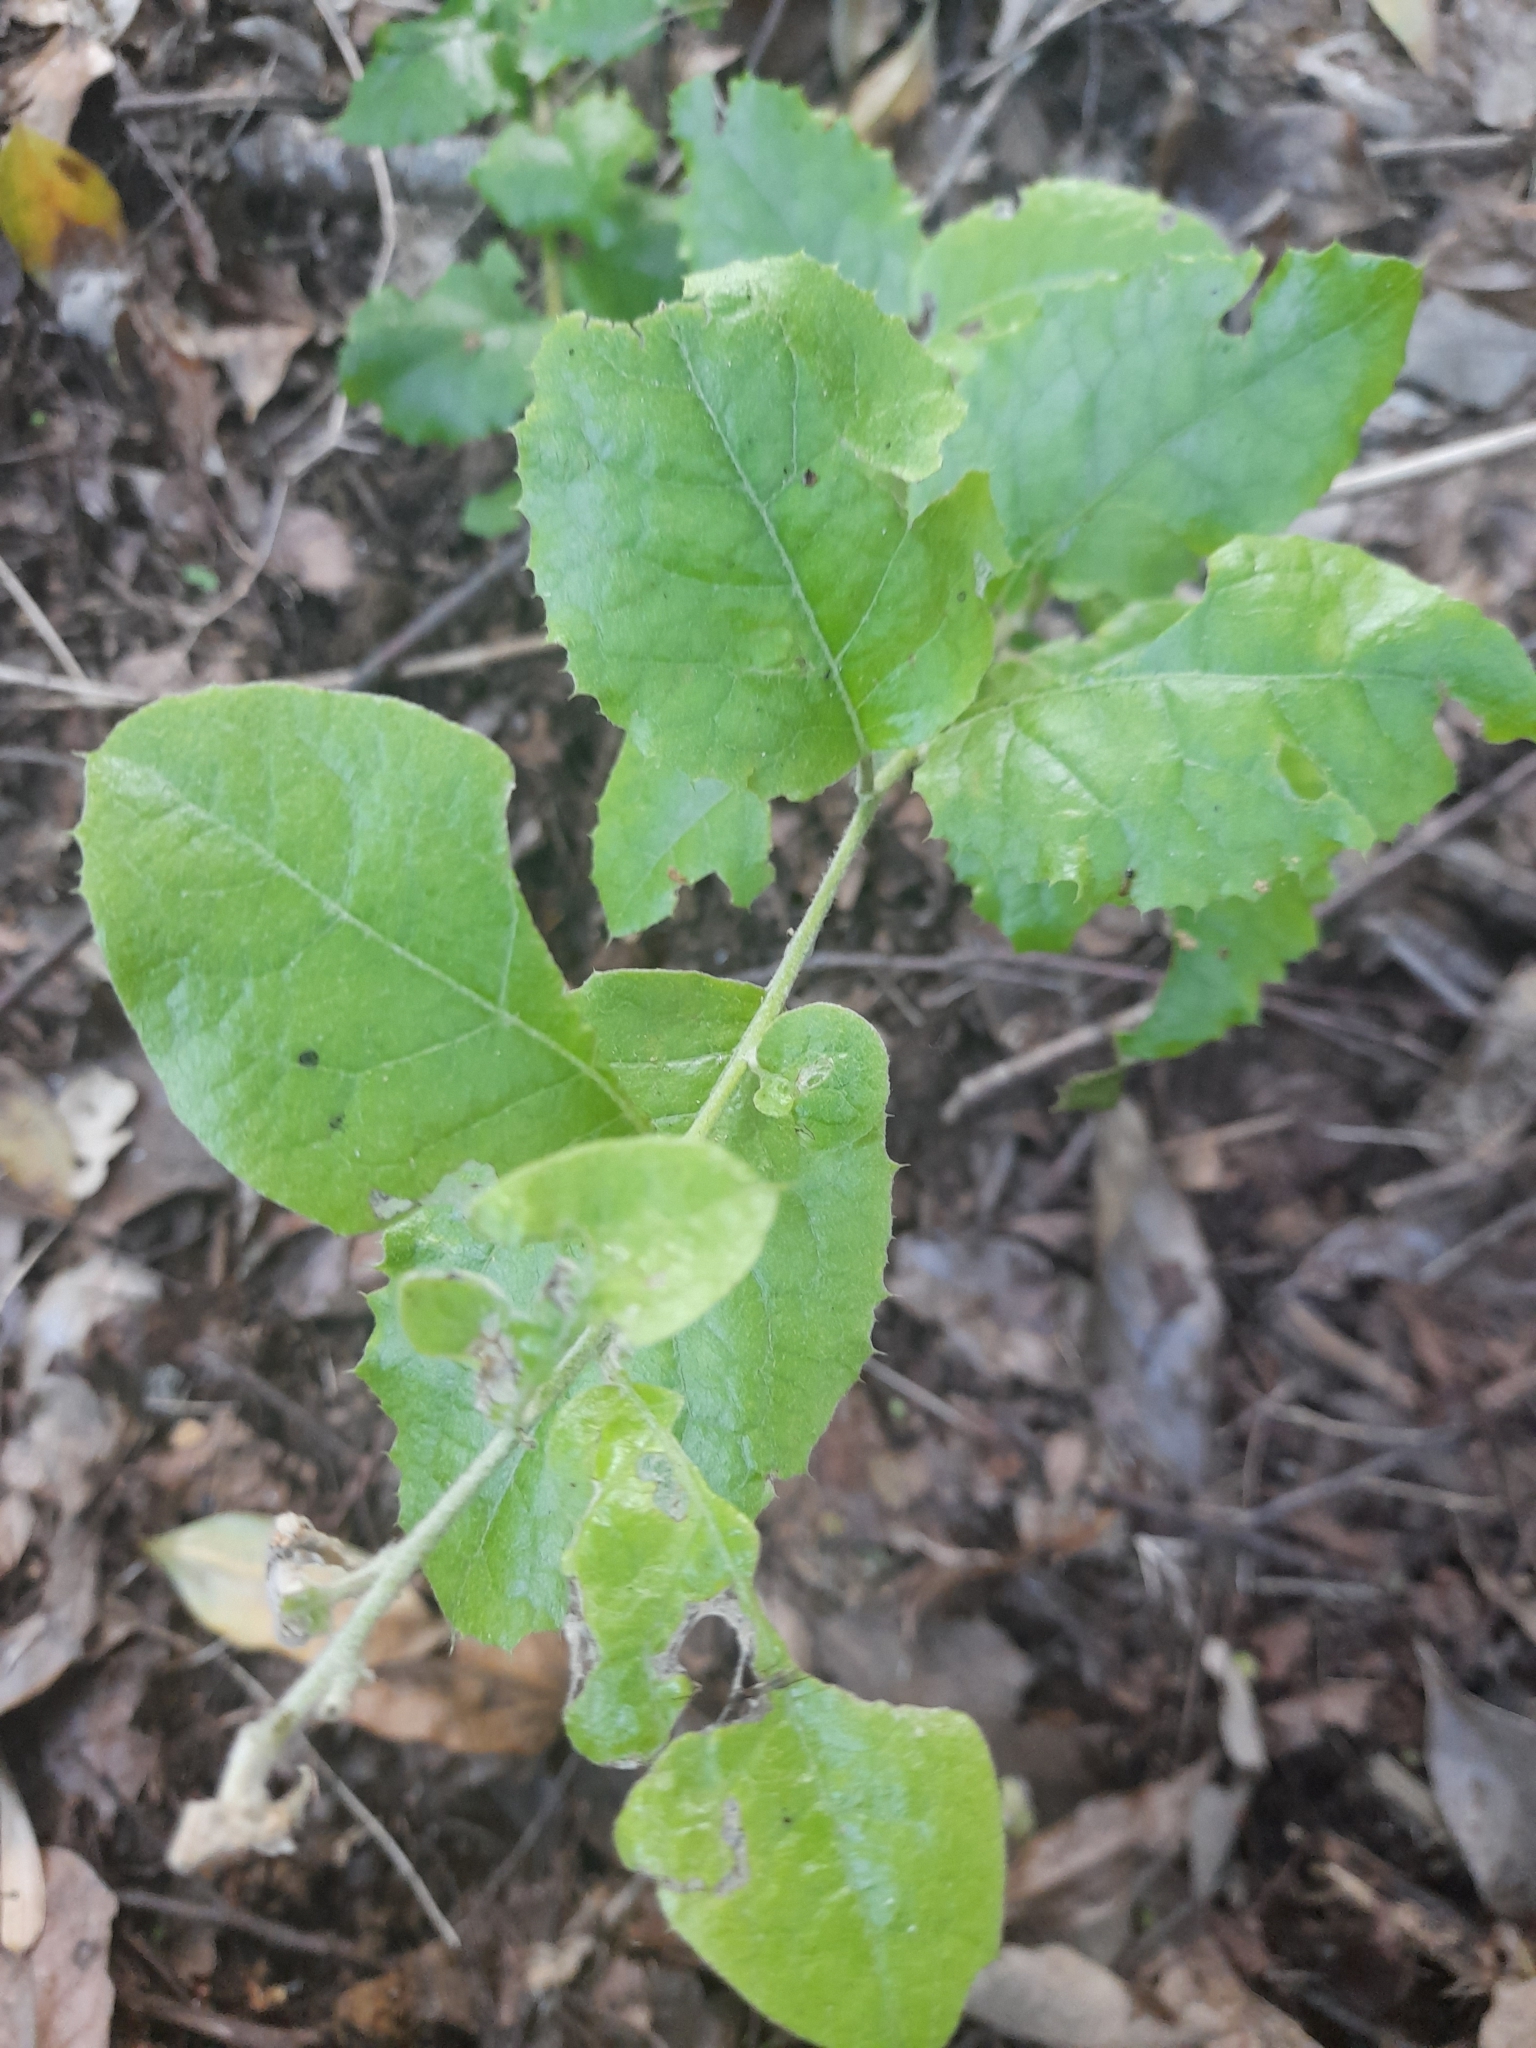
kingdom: Plantae
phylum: Tracheophyta
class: Magnoliopsida
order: Asterales
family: Asteraceae
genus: Proustia
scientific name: Proustia pyrifolia
